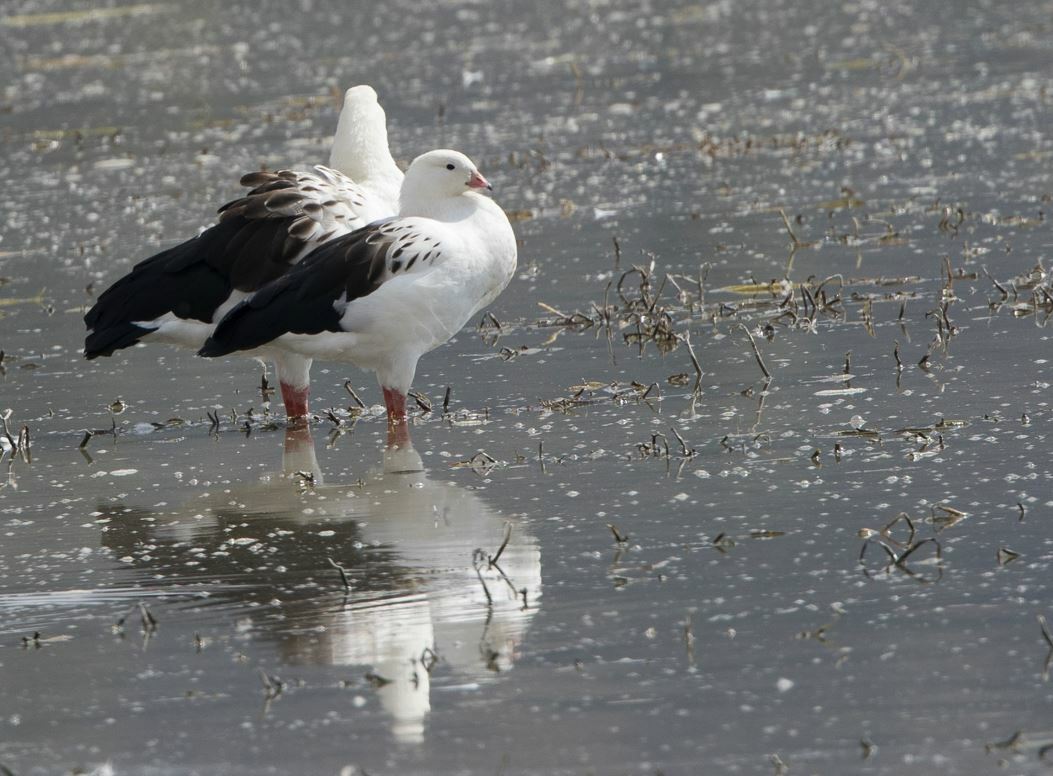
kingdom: Animalia
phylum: Chordata
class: Aves
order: Anseriformes
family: Anatidae
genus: Chloephaga
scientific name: Chloephaga melanoptera
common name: Andean goose
